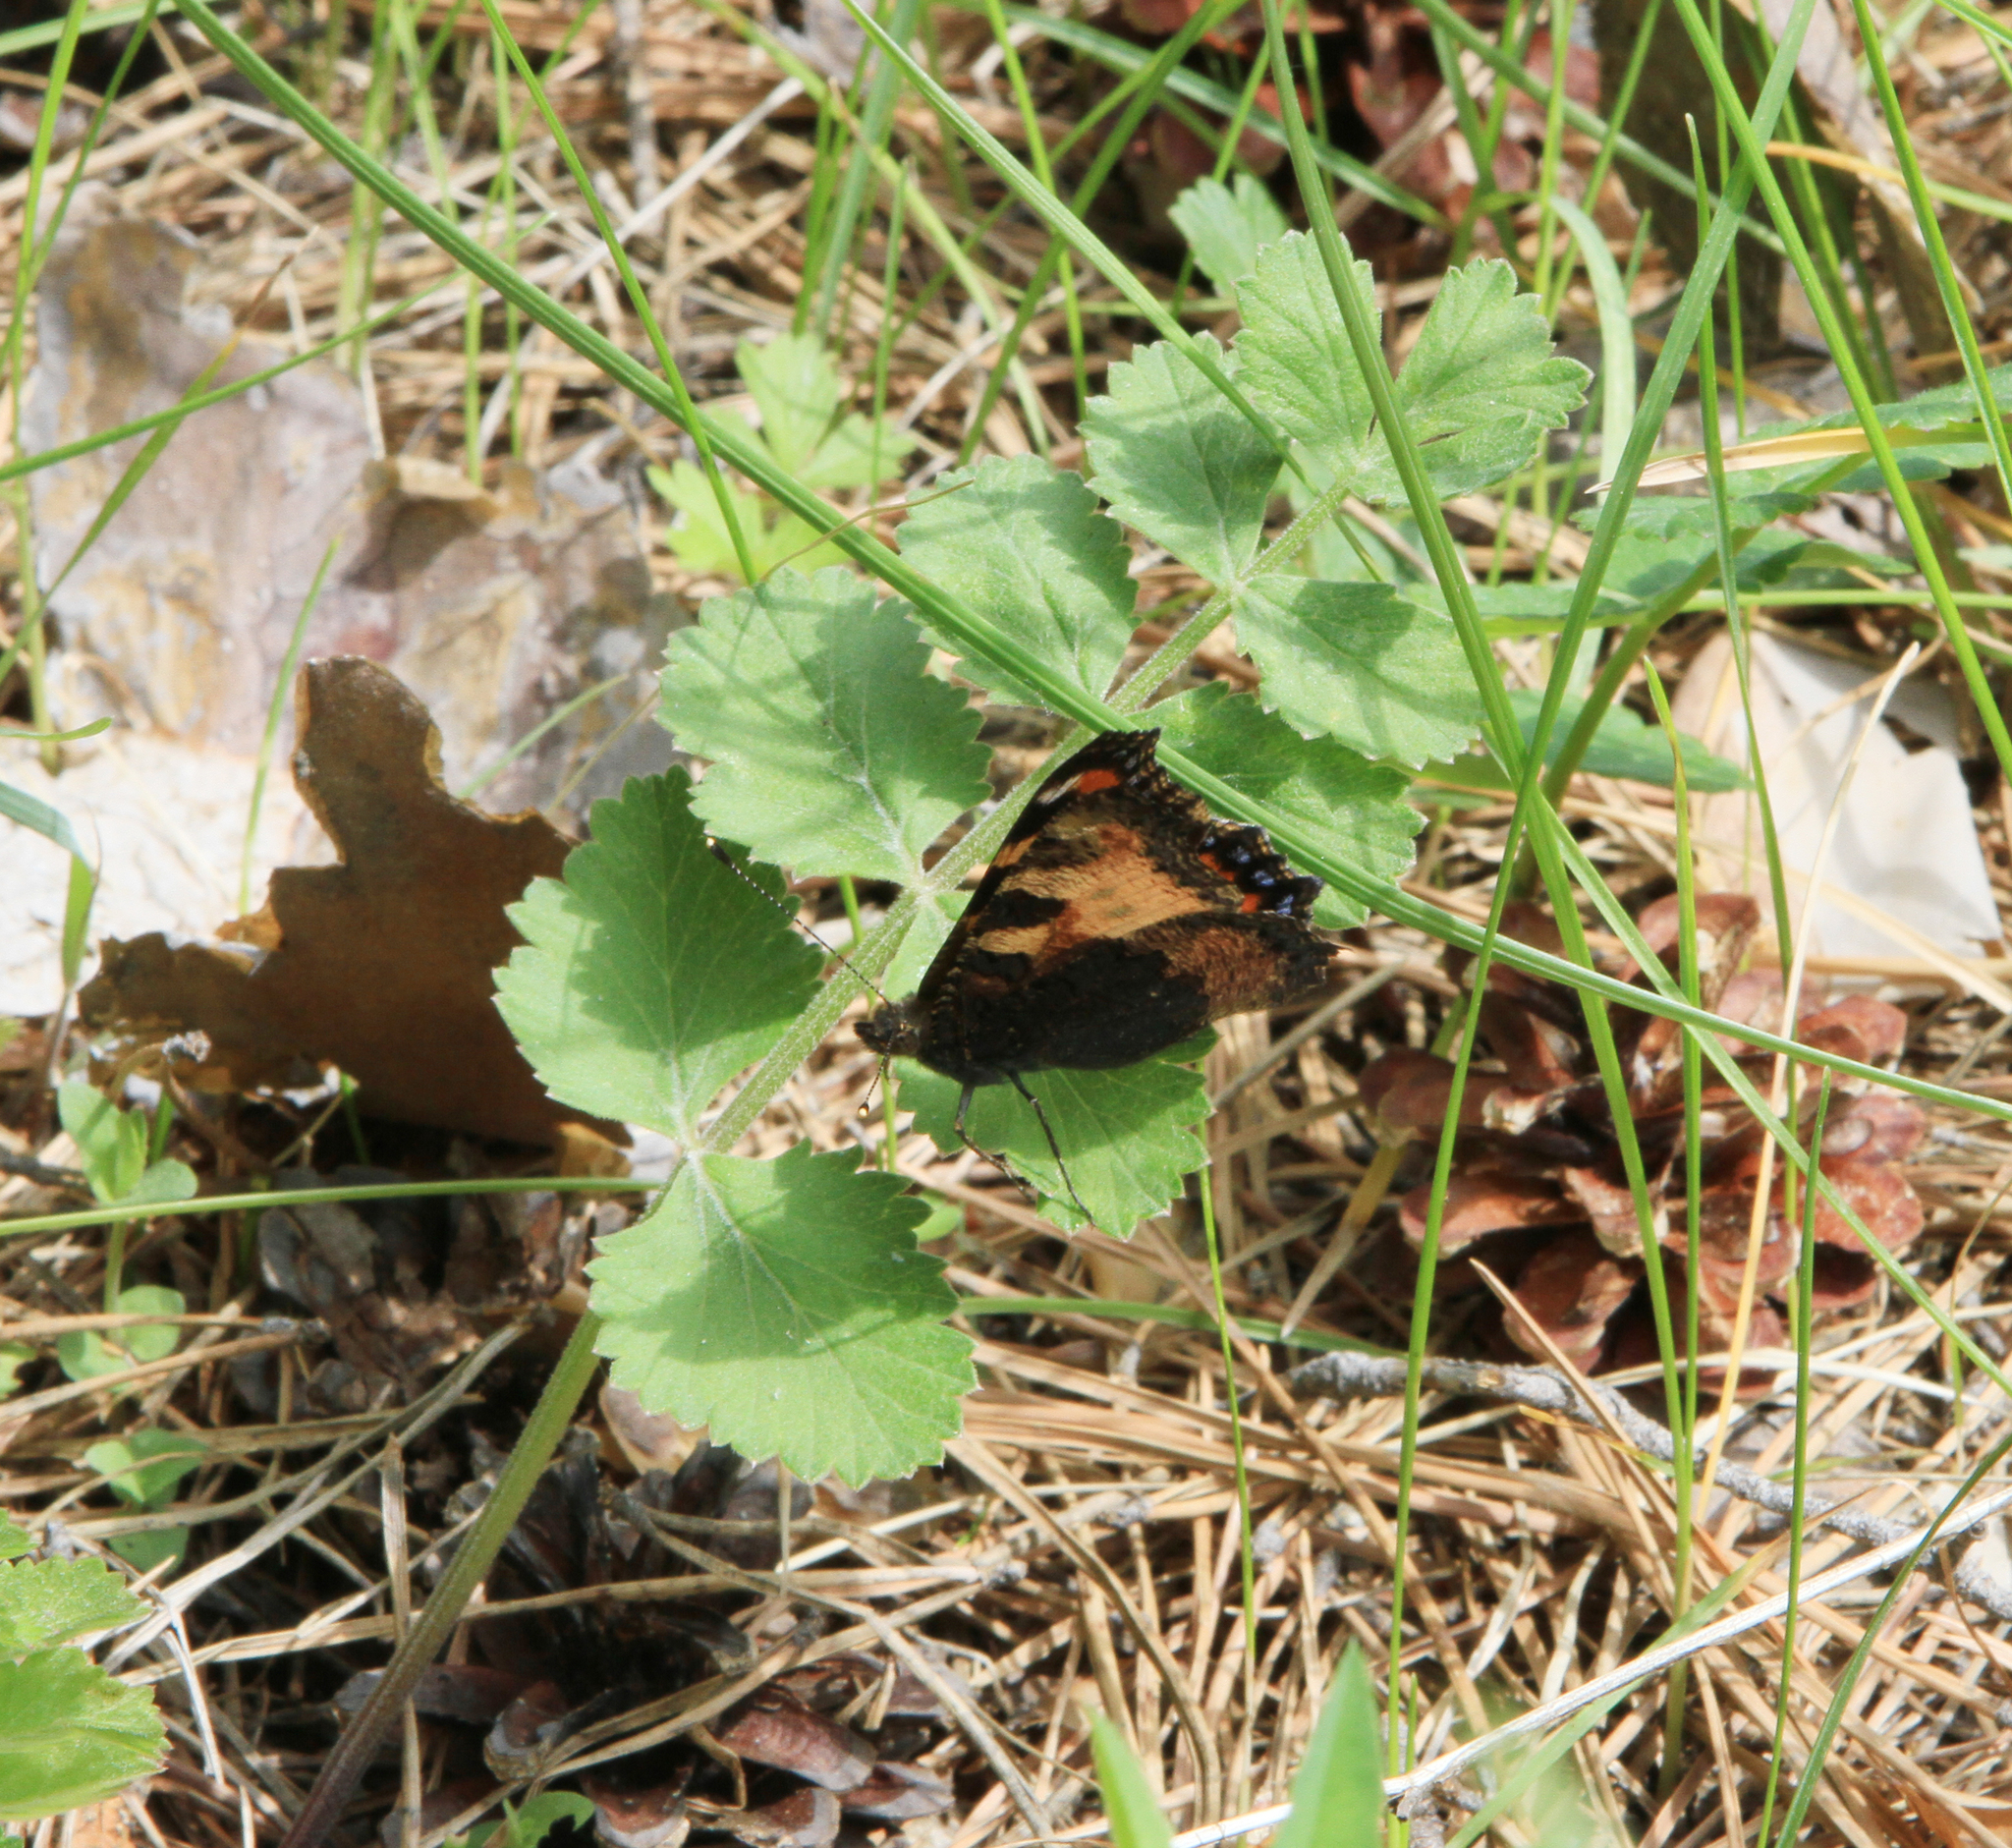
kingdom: Animalia
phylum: Arthropoda
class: Insecta
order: Lepidoptera
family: Nymphalidae
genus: Aglais
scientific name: Aglais urticae
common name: Small tortoiseshell
